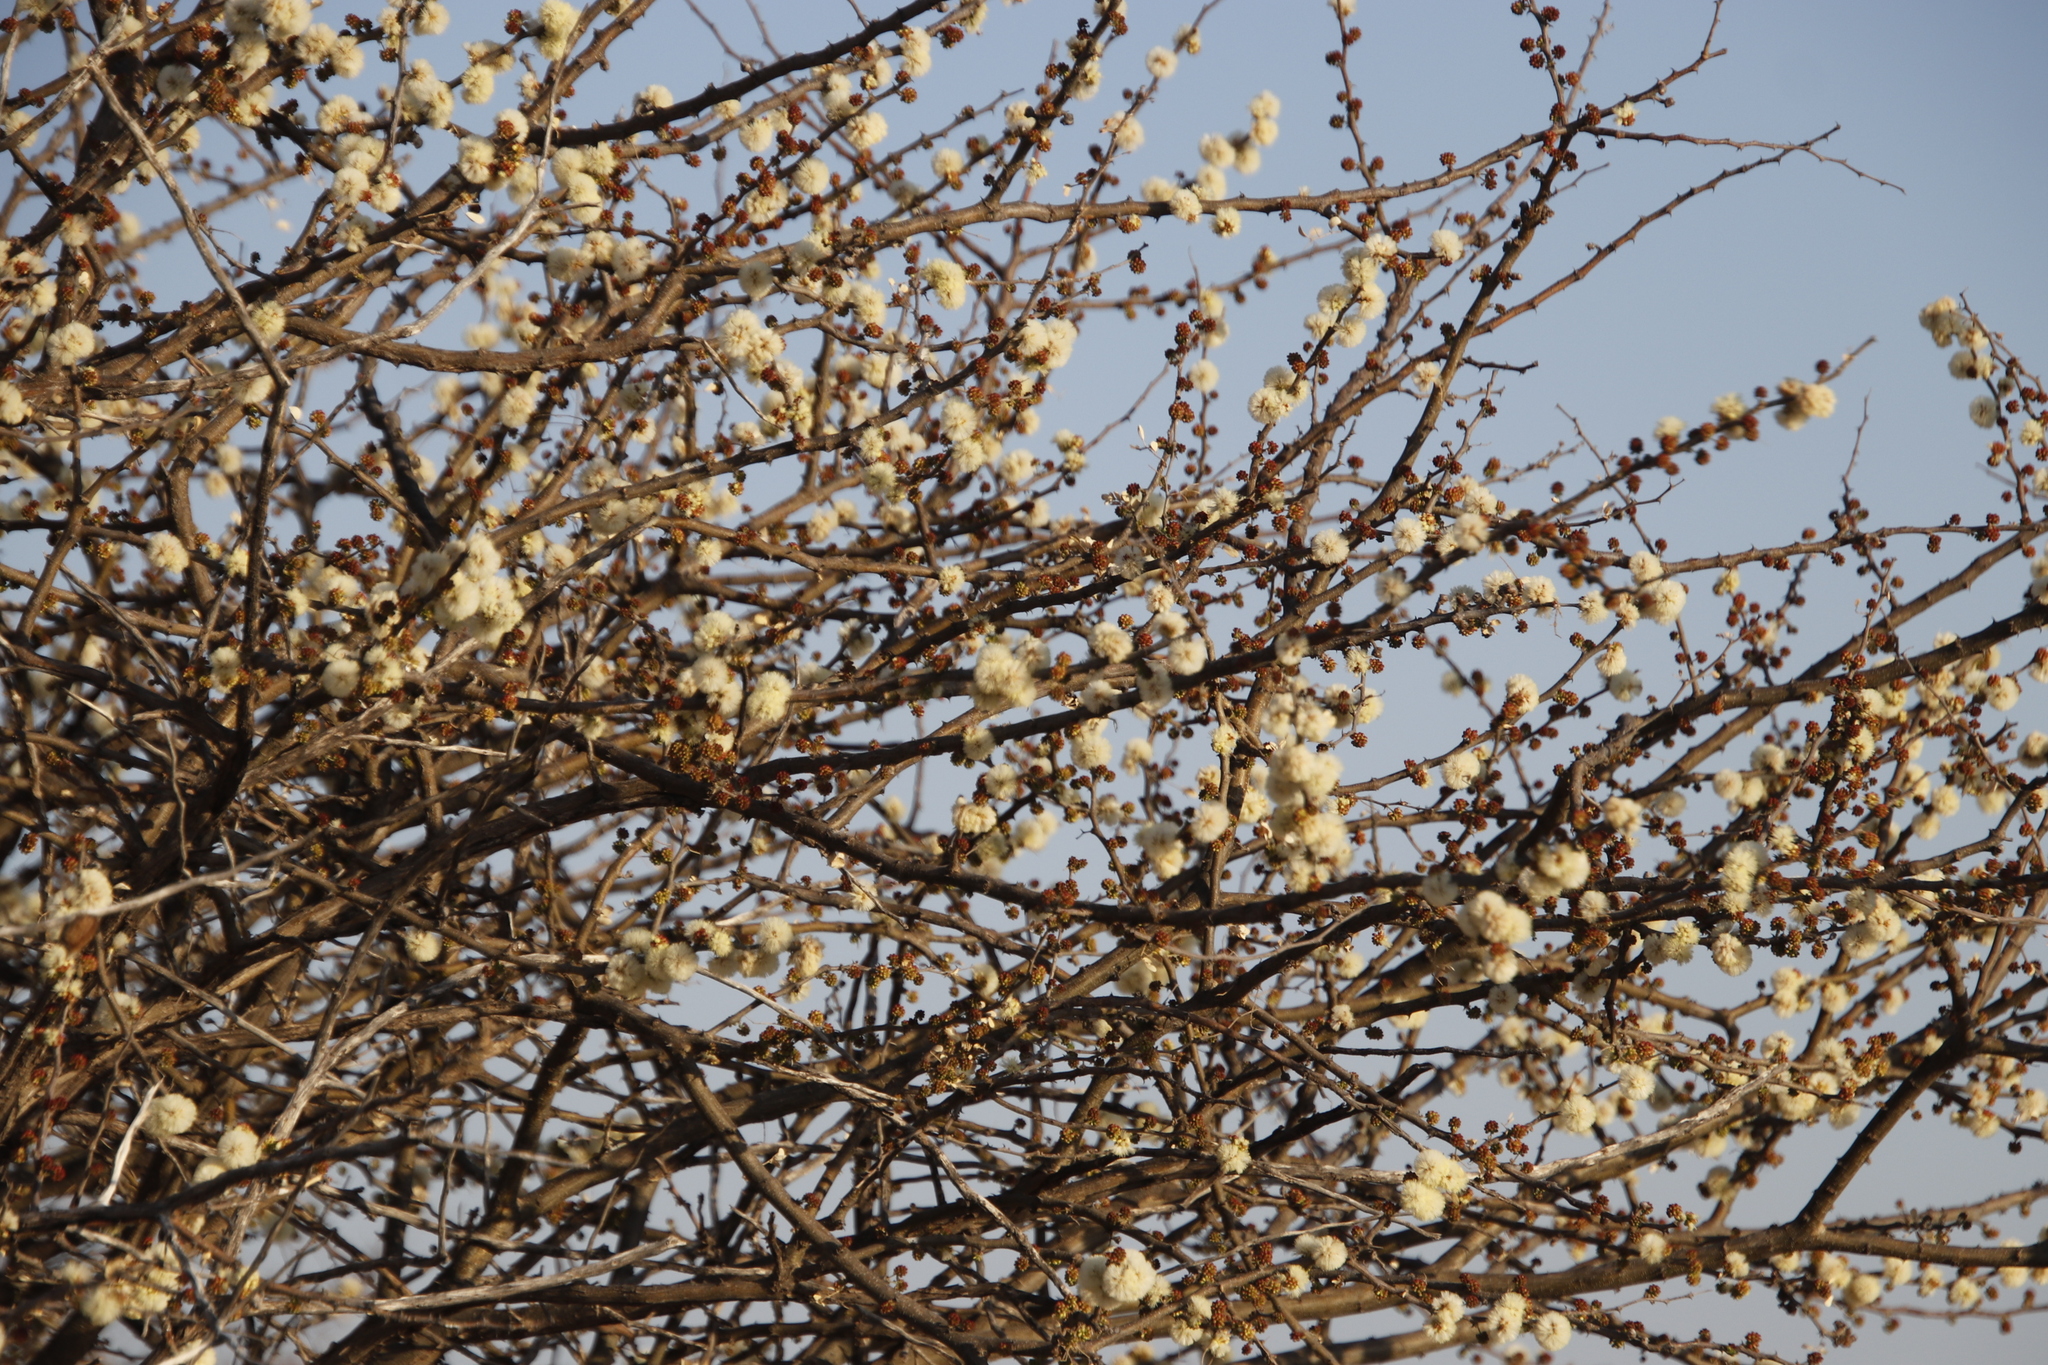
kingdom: Plantae
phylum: Tracheophyta
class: Magnoliopsida
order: Fabales
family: Fabaceae
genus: Senegalia
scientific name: Senegalia mellifera
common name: Hookthorn
